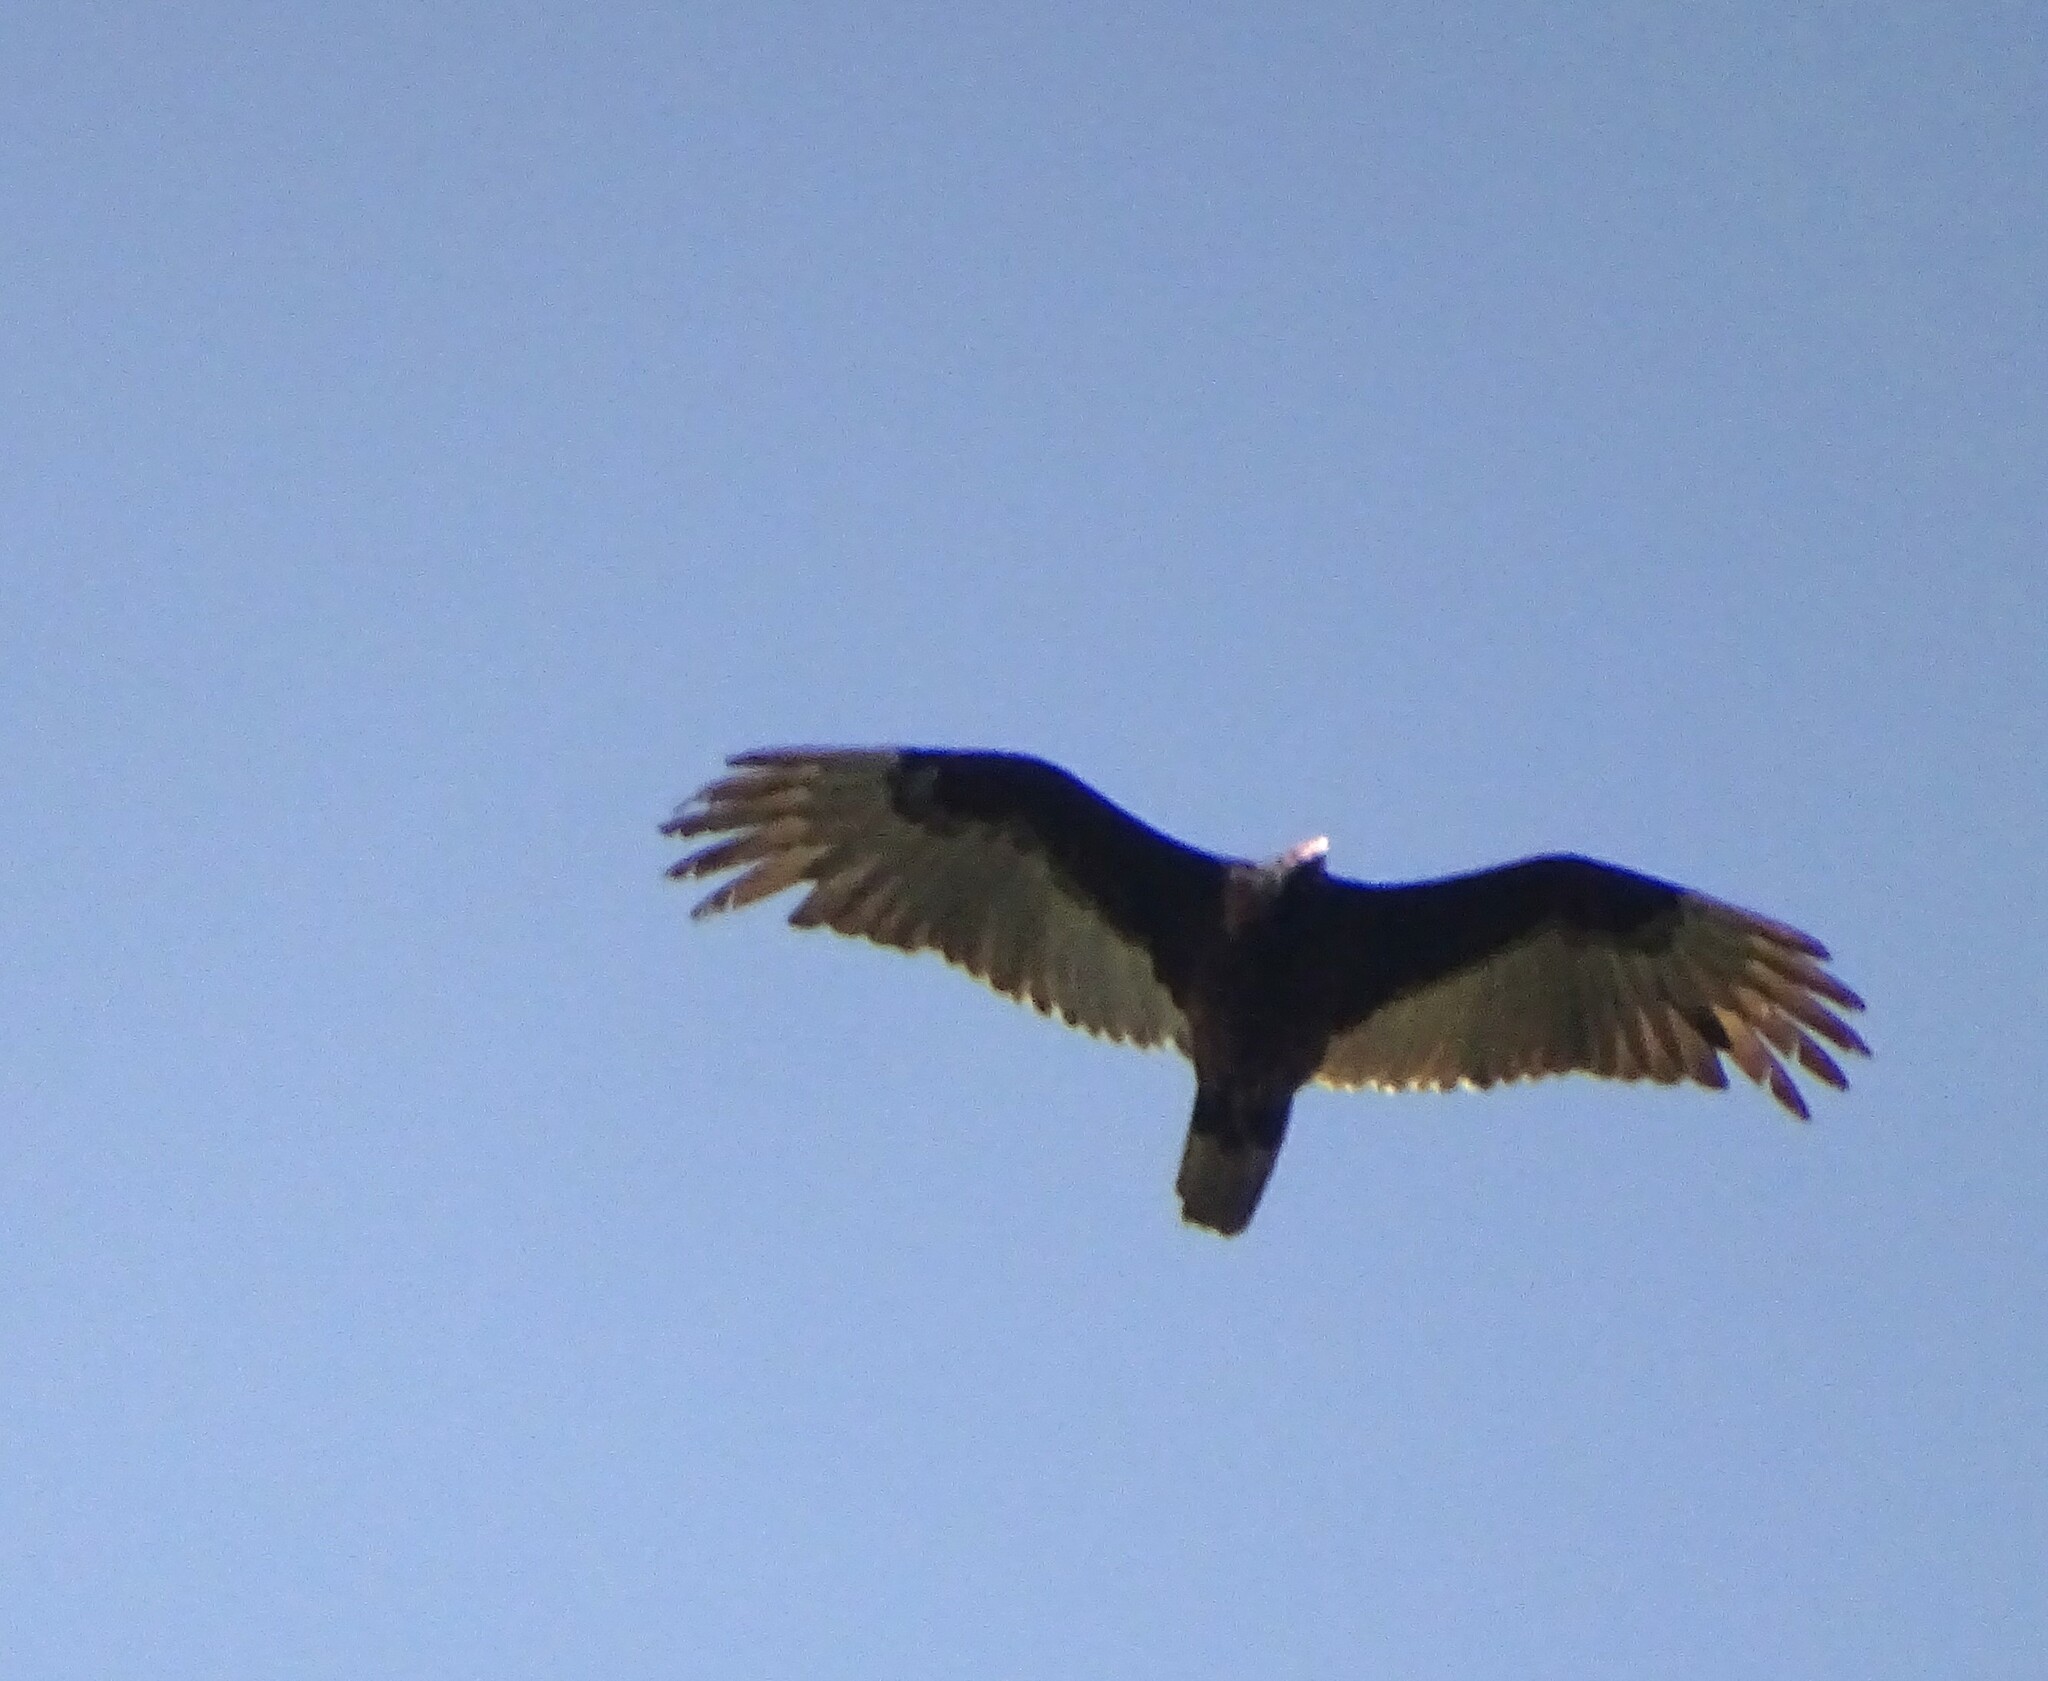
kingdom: Animalia
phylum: Chordata
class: Aves
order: Accipitriformes
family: Cathartidae
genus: Cathartes
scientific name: Cathartes aura
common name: Turkey vulture
